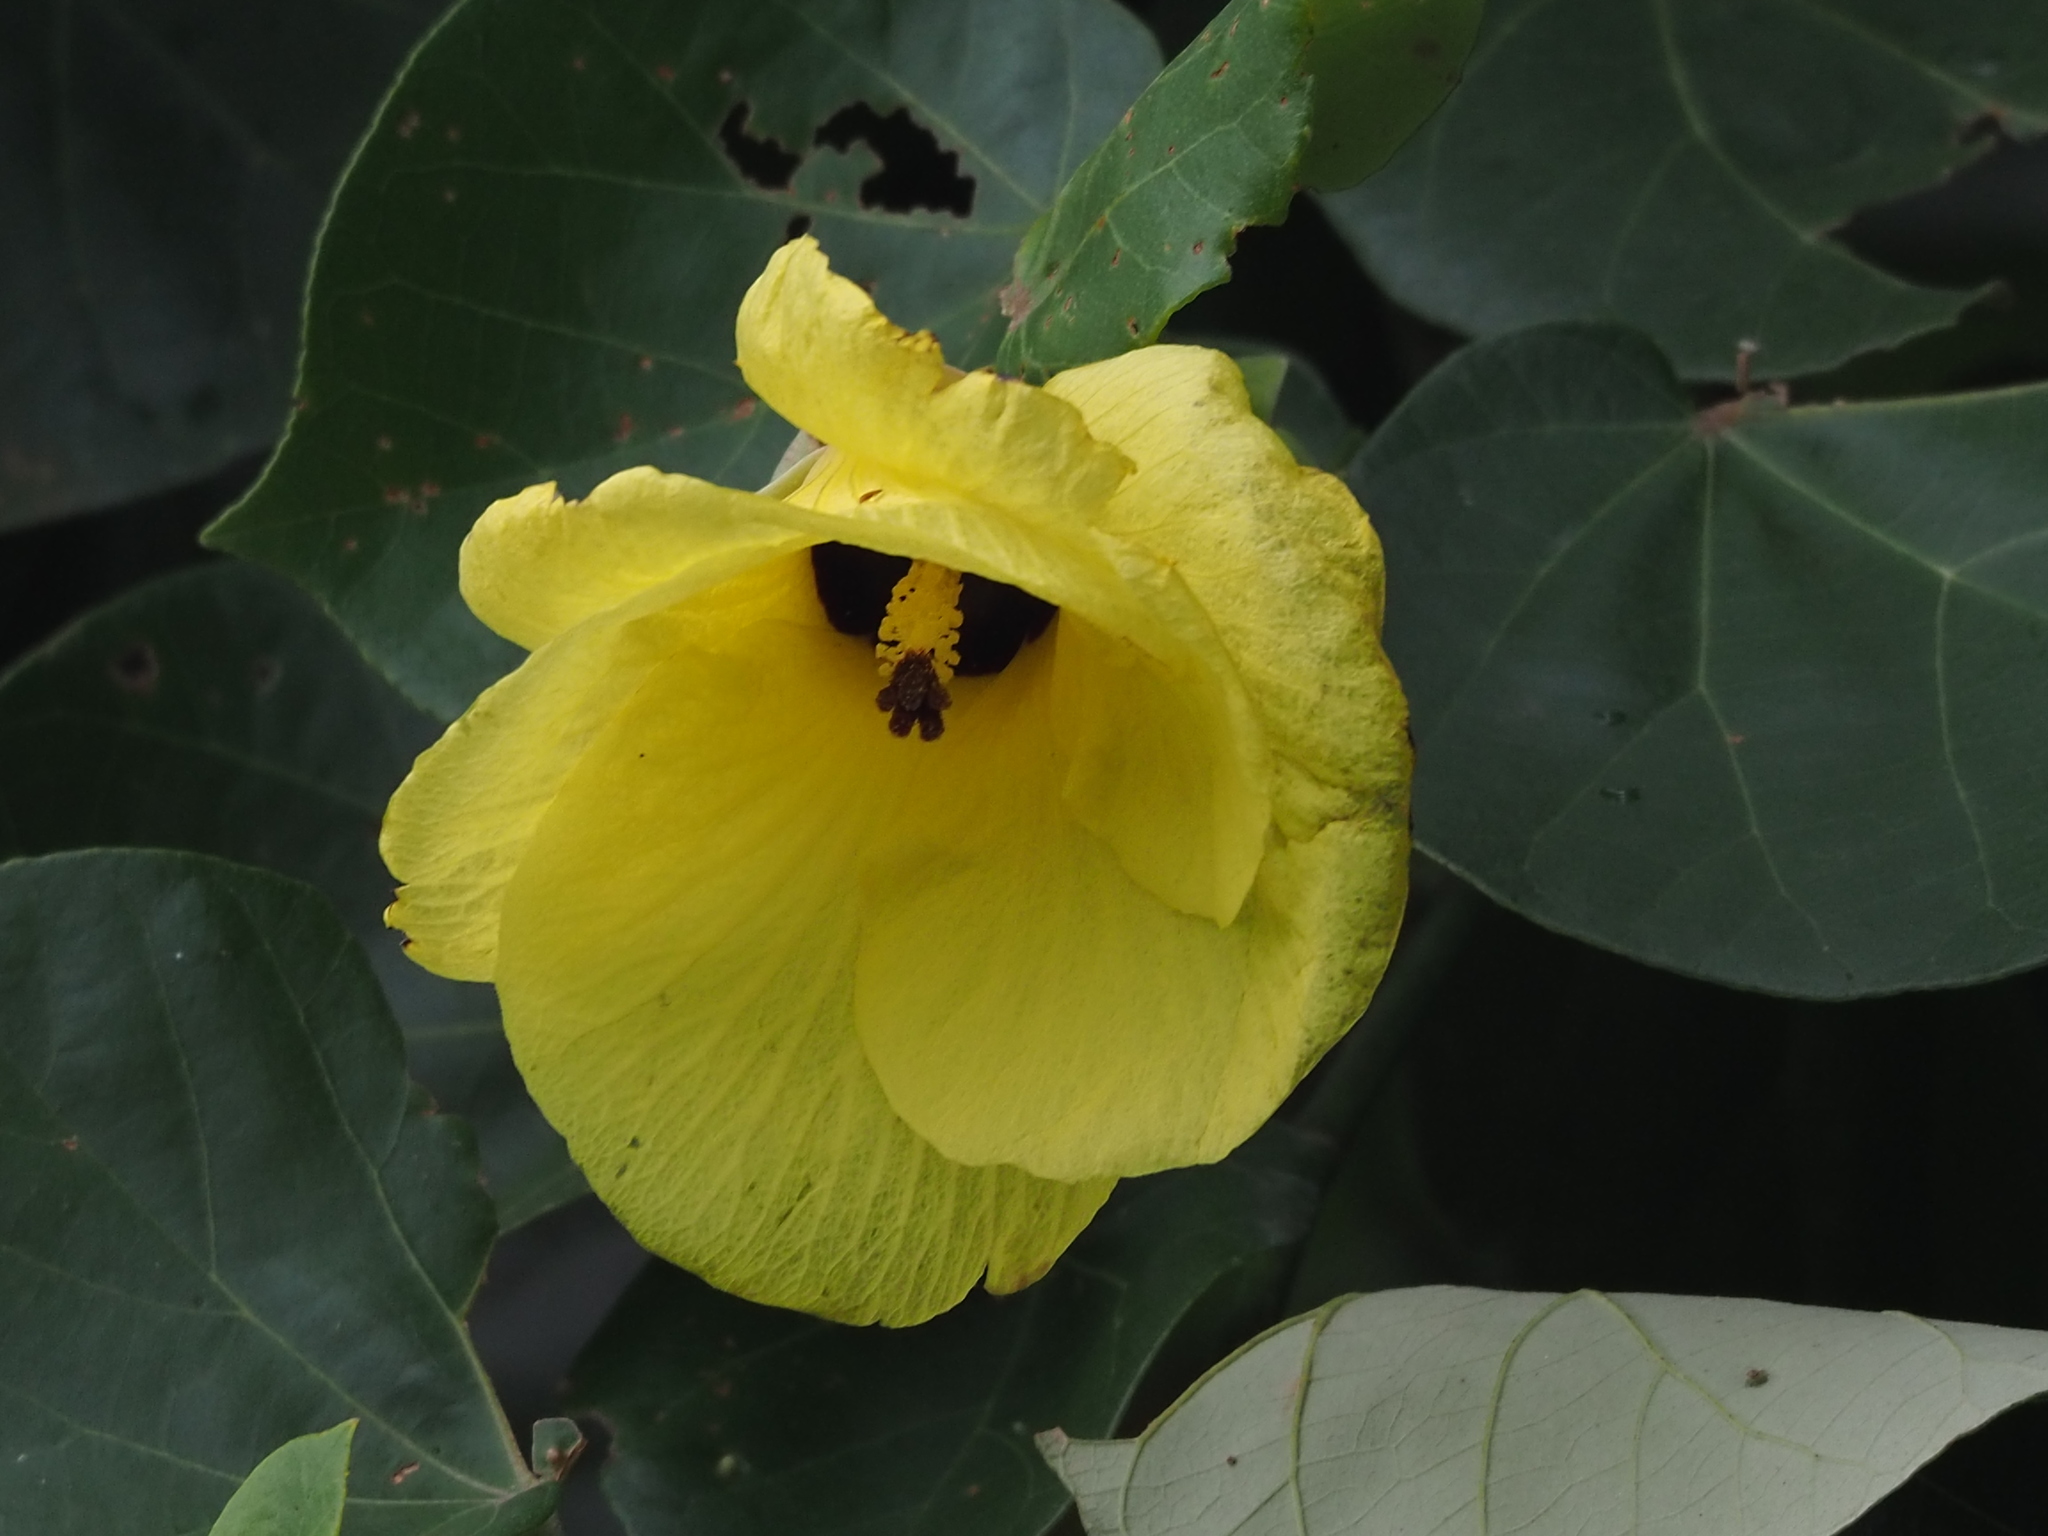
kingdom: Plantae
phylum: Tracheophyta
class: Magnoliopsida
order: Malvales
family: Malvaceae
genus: Talipariti
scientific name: Talipariti tiliaceum
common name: Sea hibiscus
